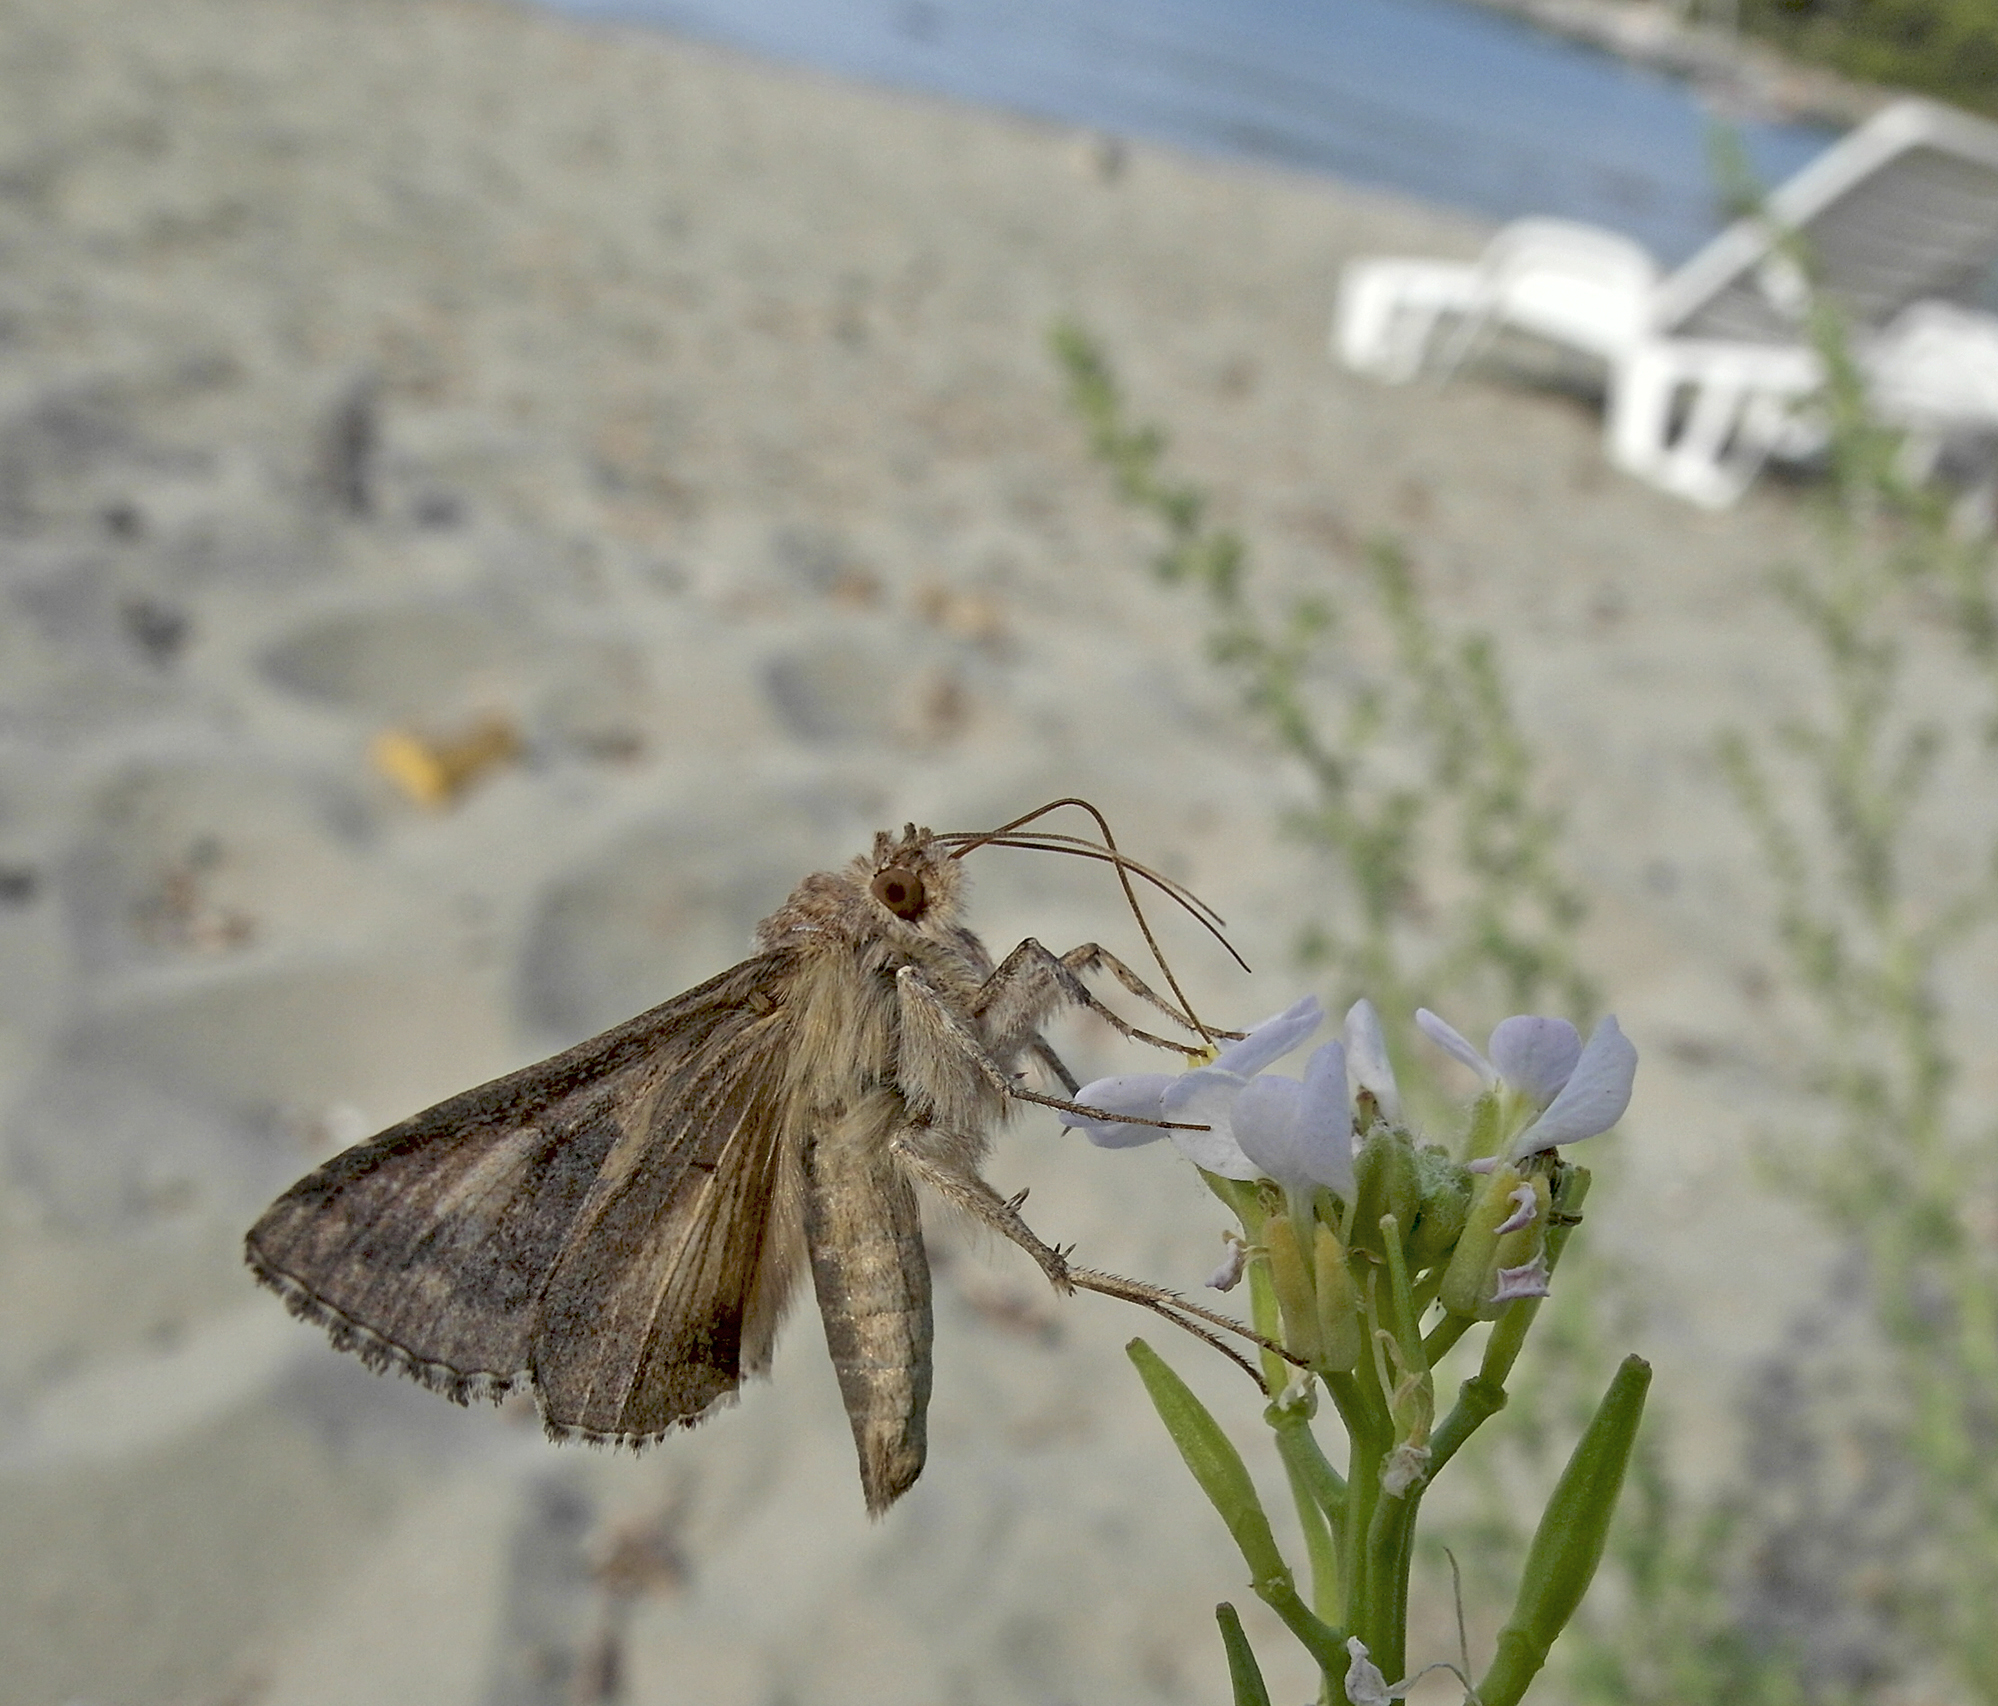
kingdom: Animalia
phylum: Arthropoda
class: Insecta
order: Lepidoptera
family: Noctuidae
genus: Autographa
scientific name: Autographa gamma
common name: Silver y
